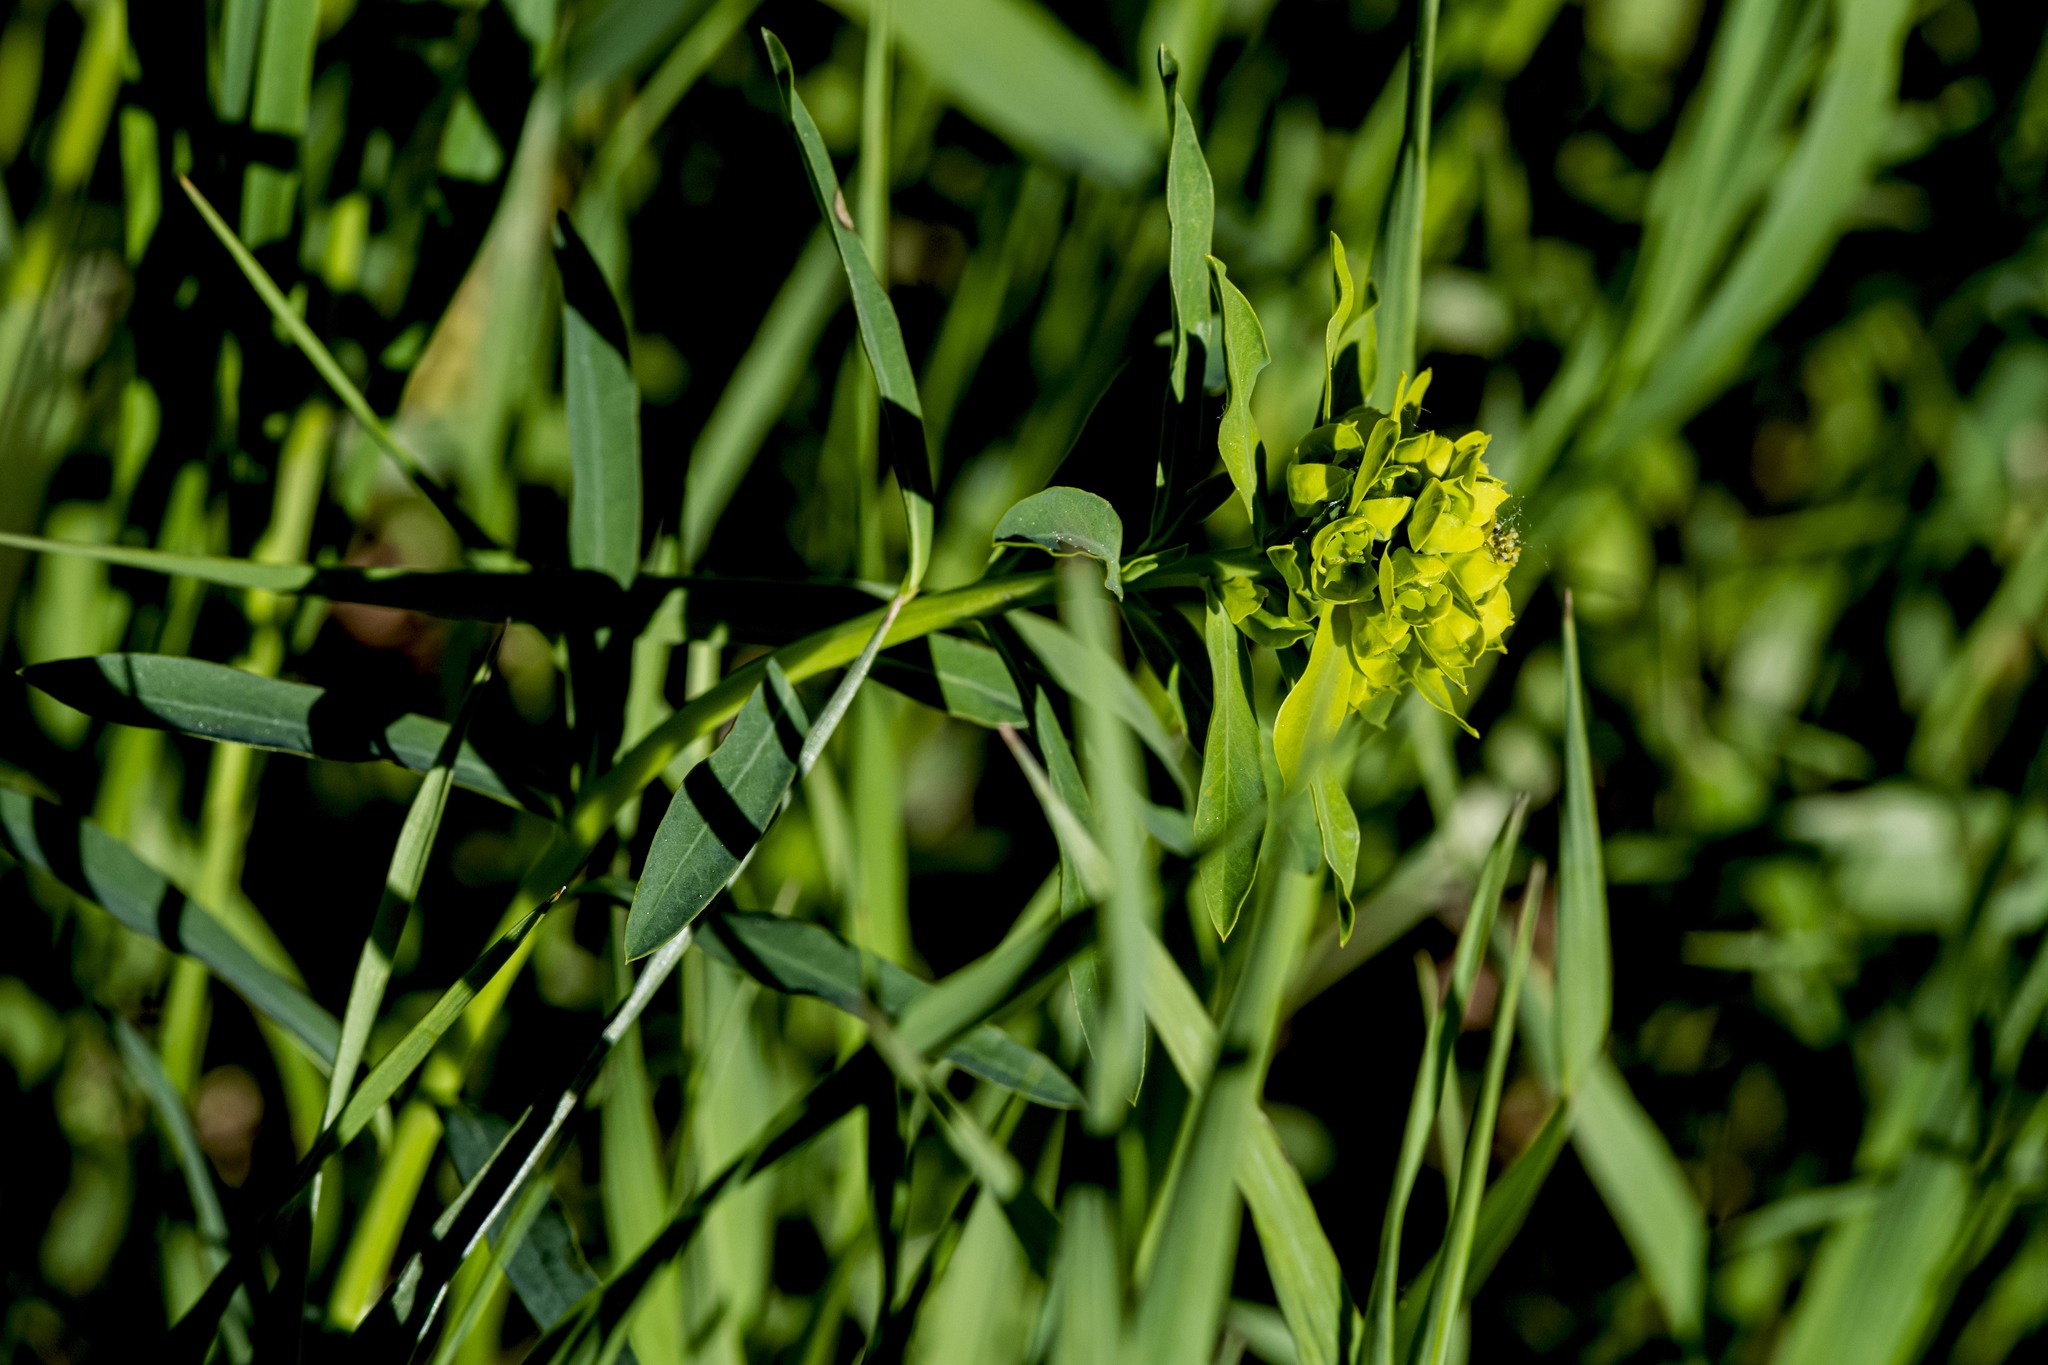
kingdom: Plantae
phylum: Tracheophyta
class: Magnoliopsida
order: Malpighiales
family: Euphorbiaceae
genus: Euphorbia
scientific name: Euphorbia virgata
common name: Leafy spurge
